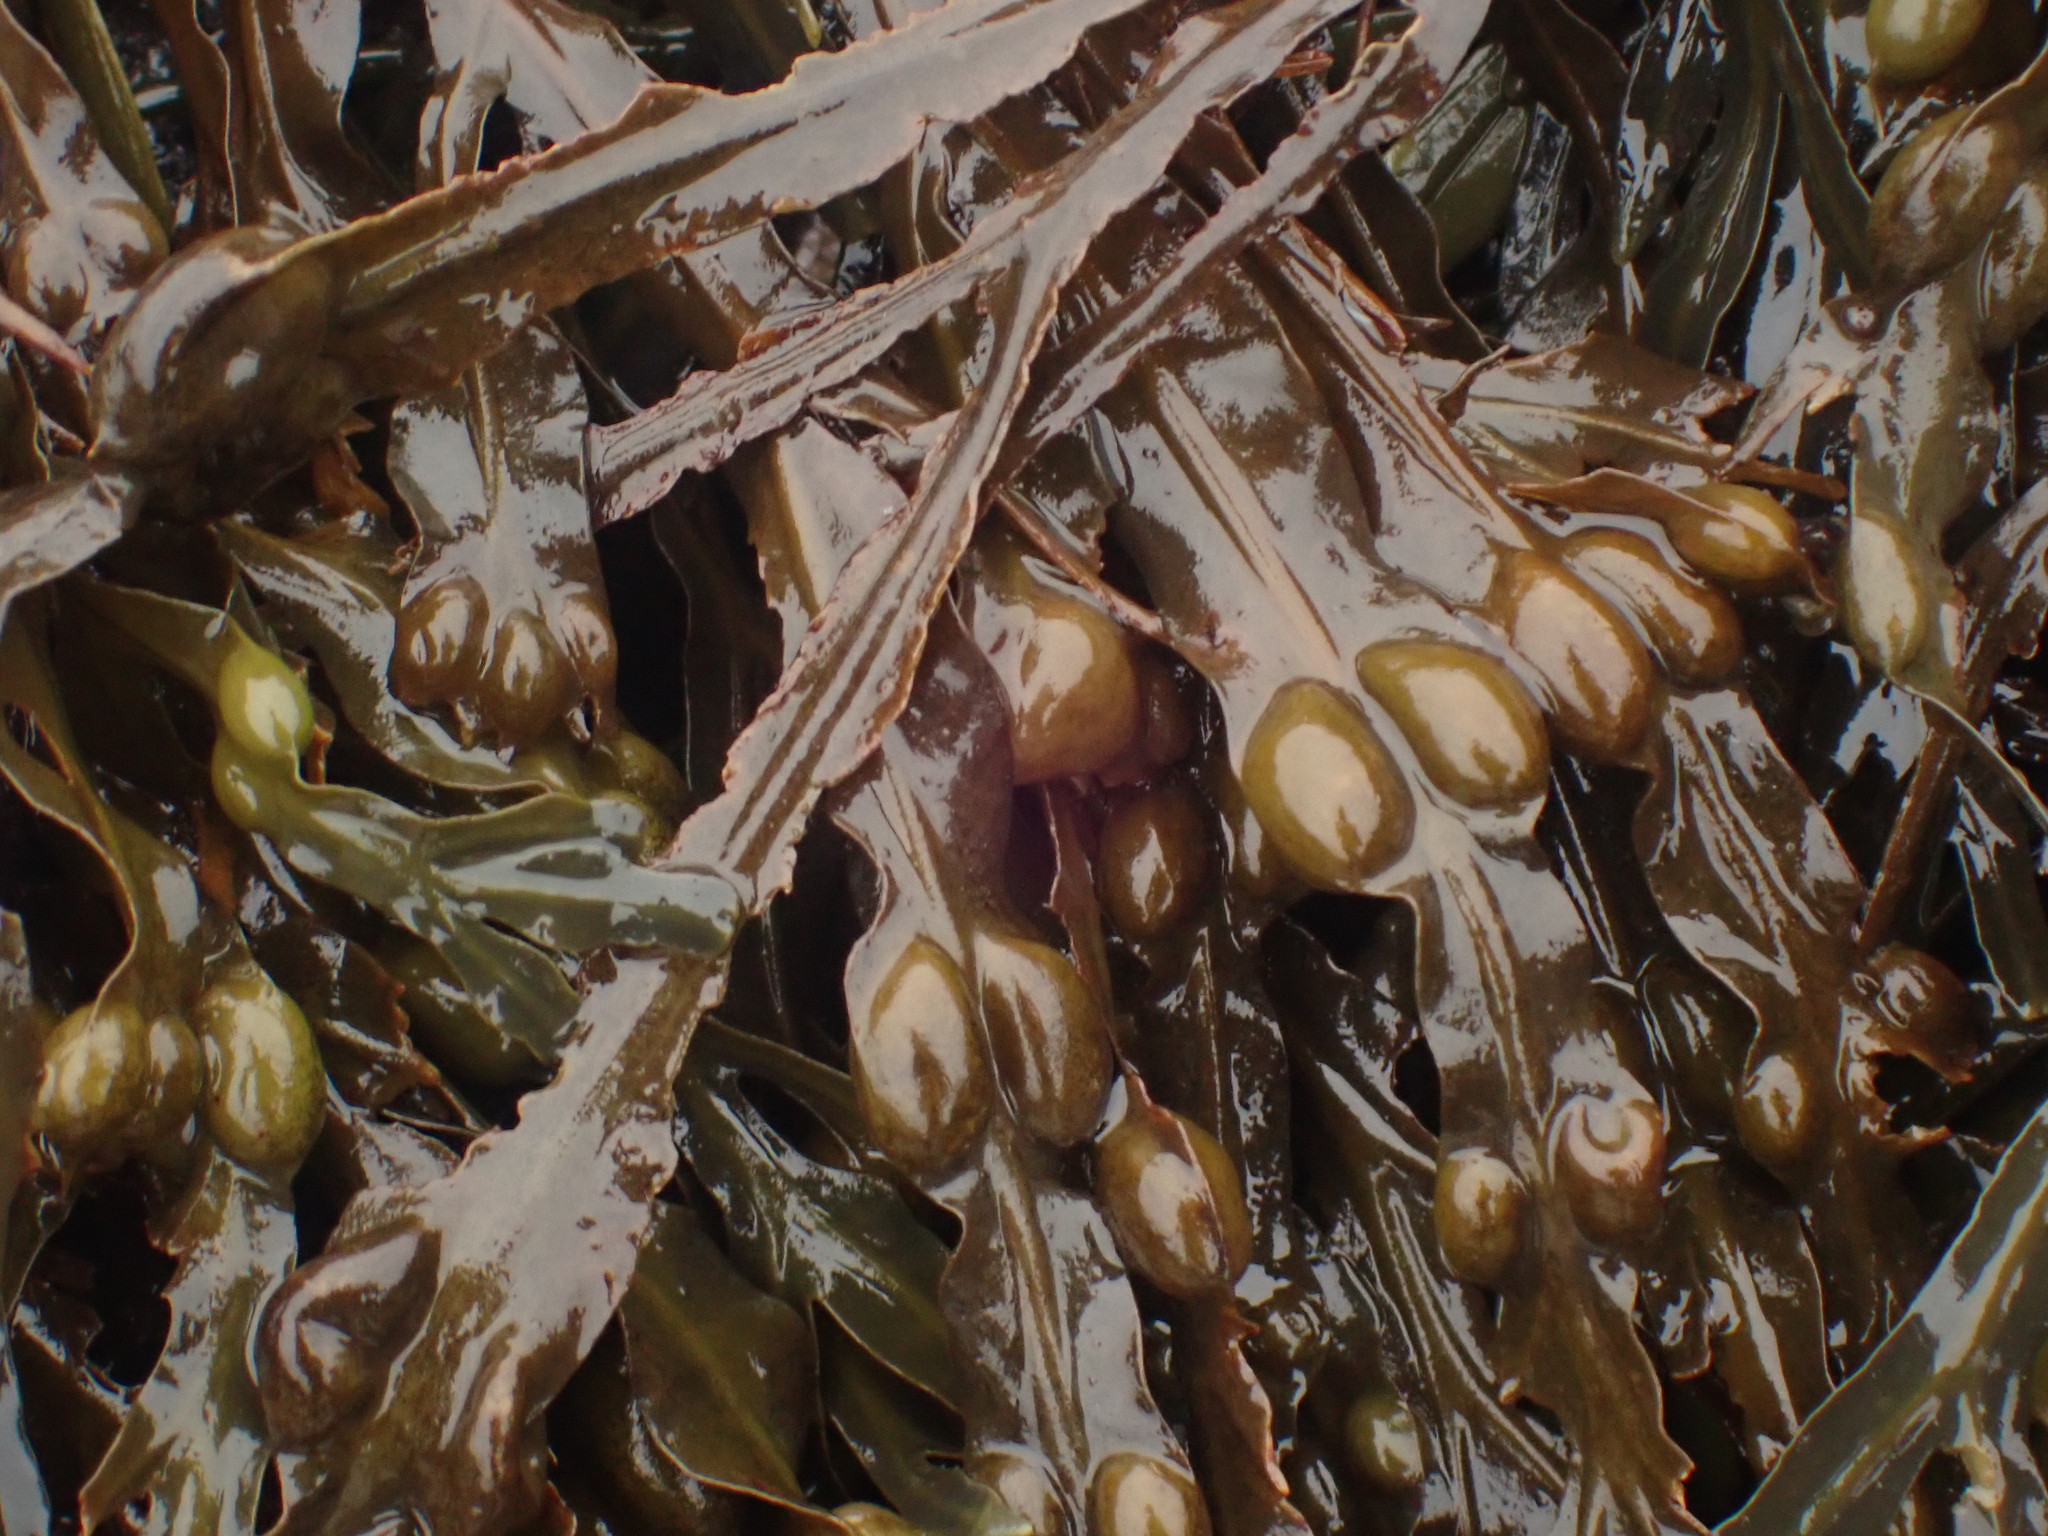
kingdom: Chromista
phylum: Ochrophyta
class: Phaeophyceae
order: Fucales
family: Fucaceae
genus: Fucus
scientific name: Fucus vesiculosus
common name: Bladder wrack
